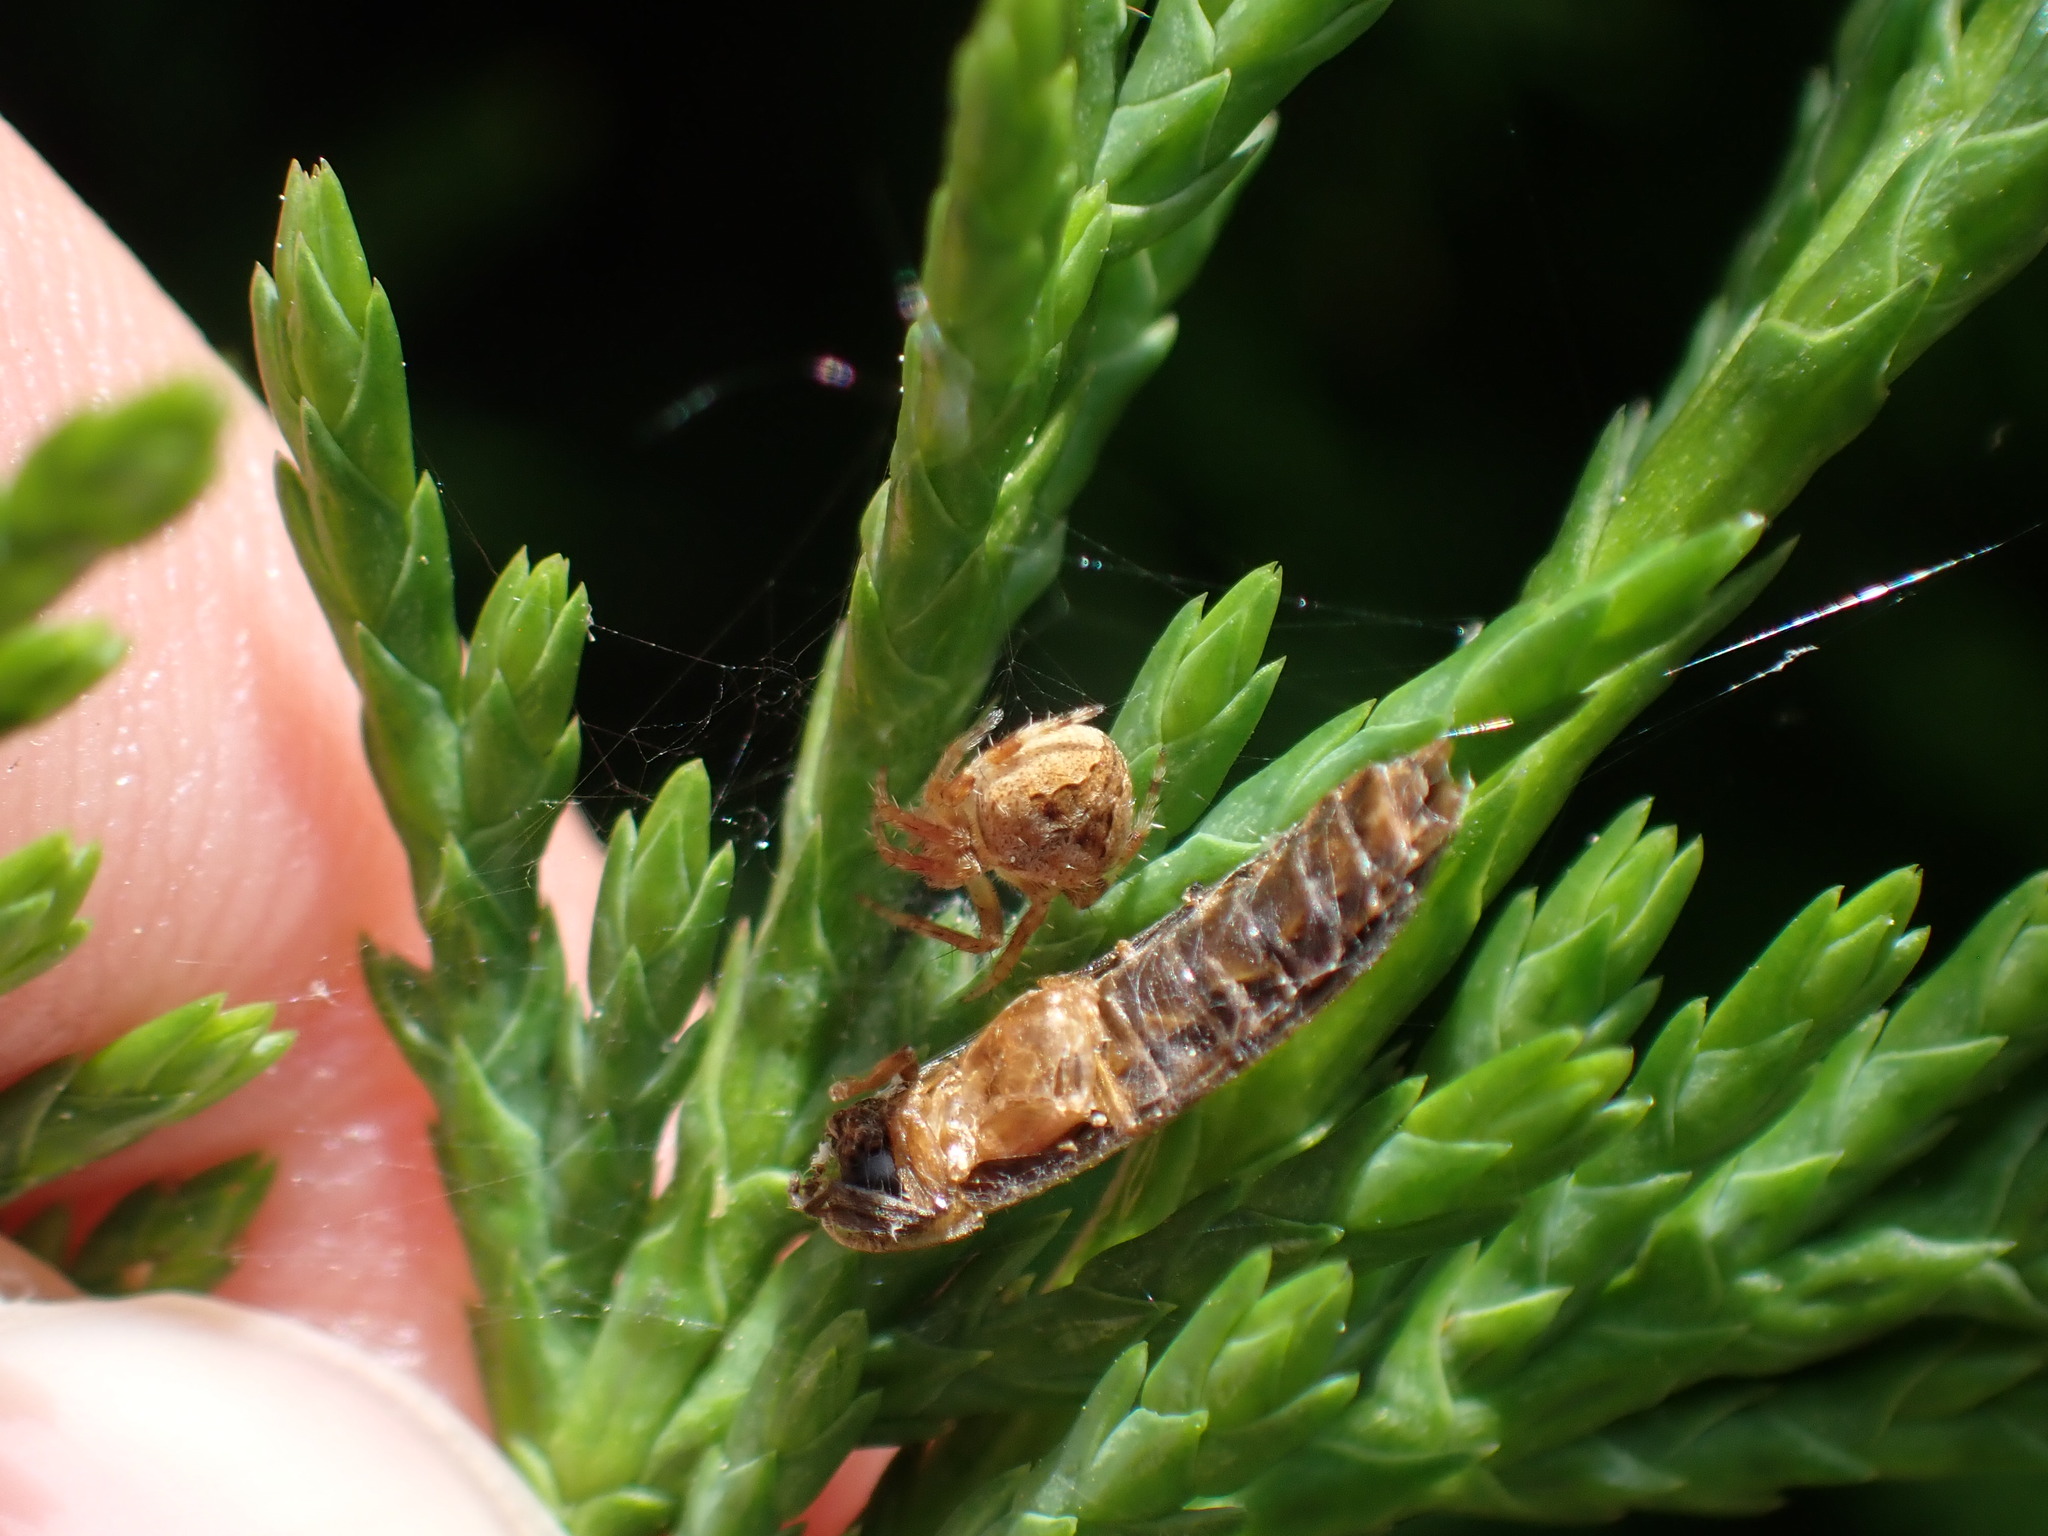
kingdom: Animalia
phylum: Arthropoda
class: Arachnida
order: Araneae
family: Araneidae
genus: Neoscona
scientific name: Neoscona subfusca
